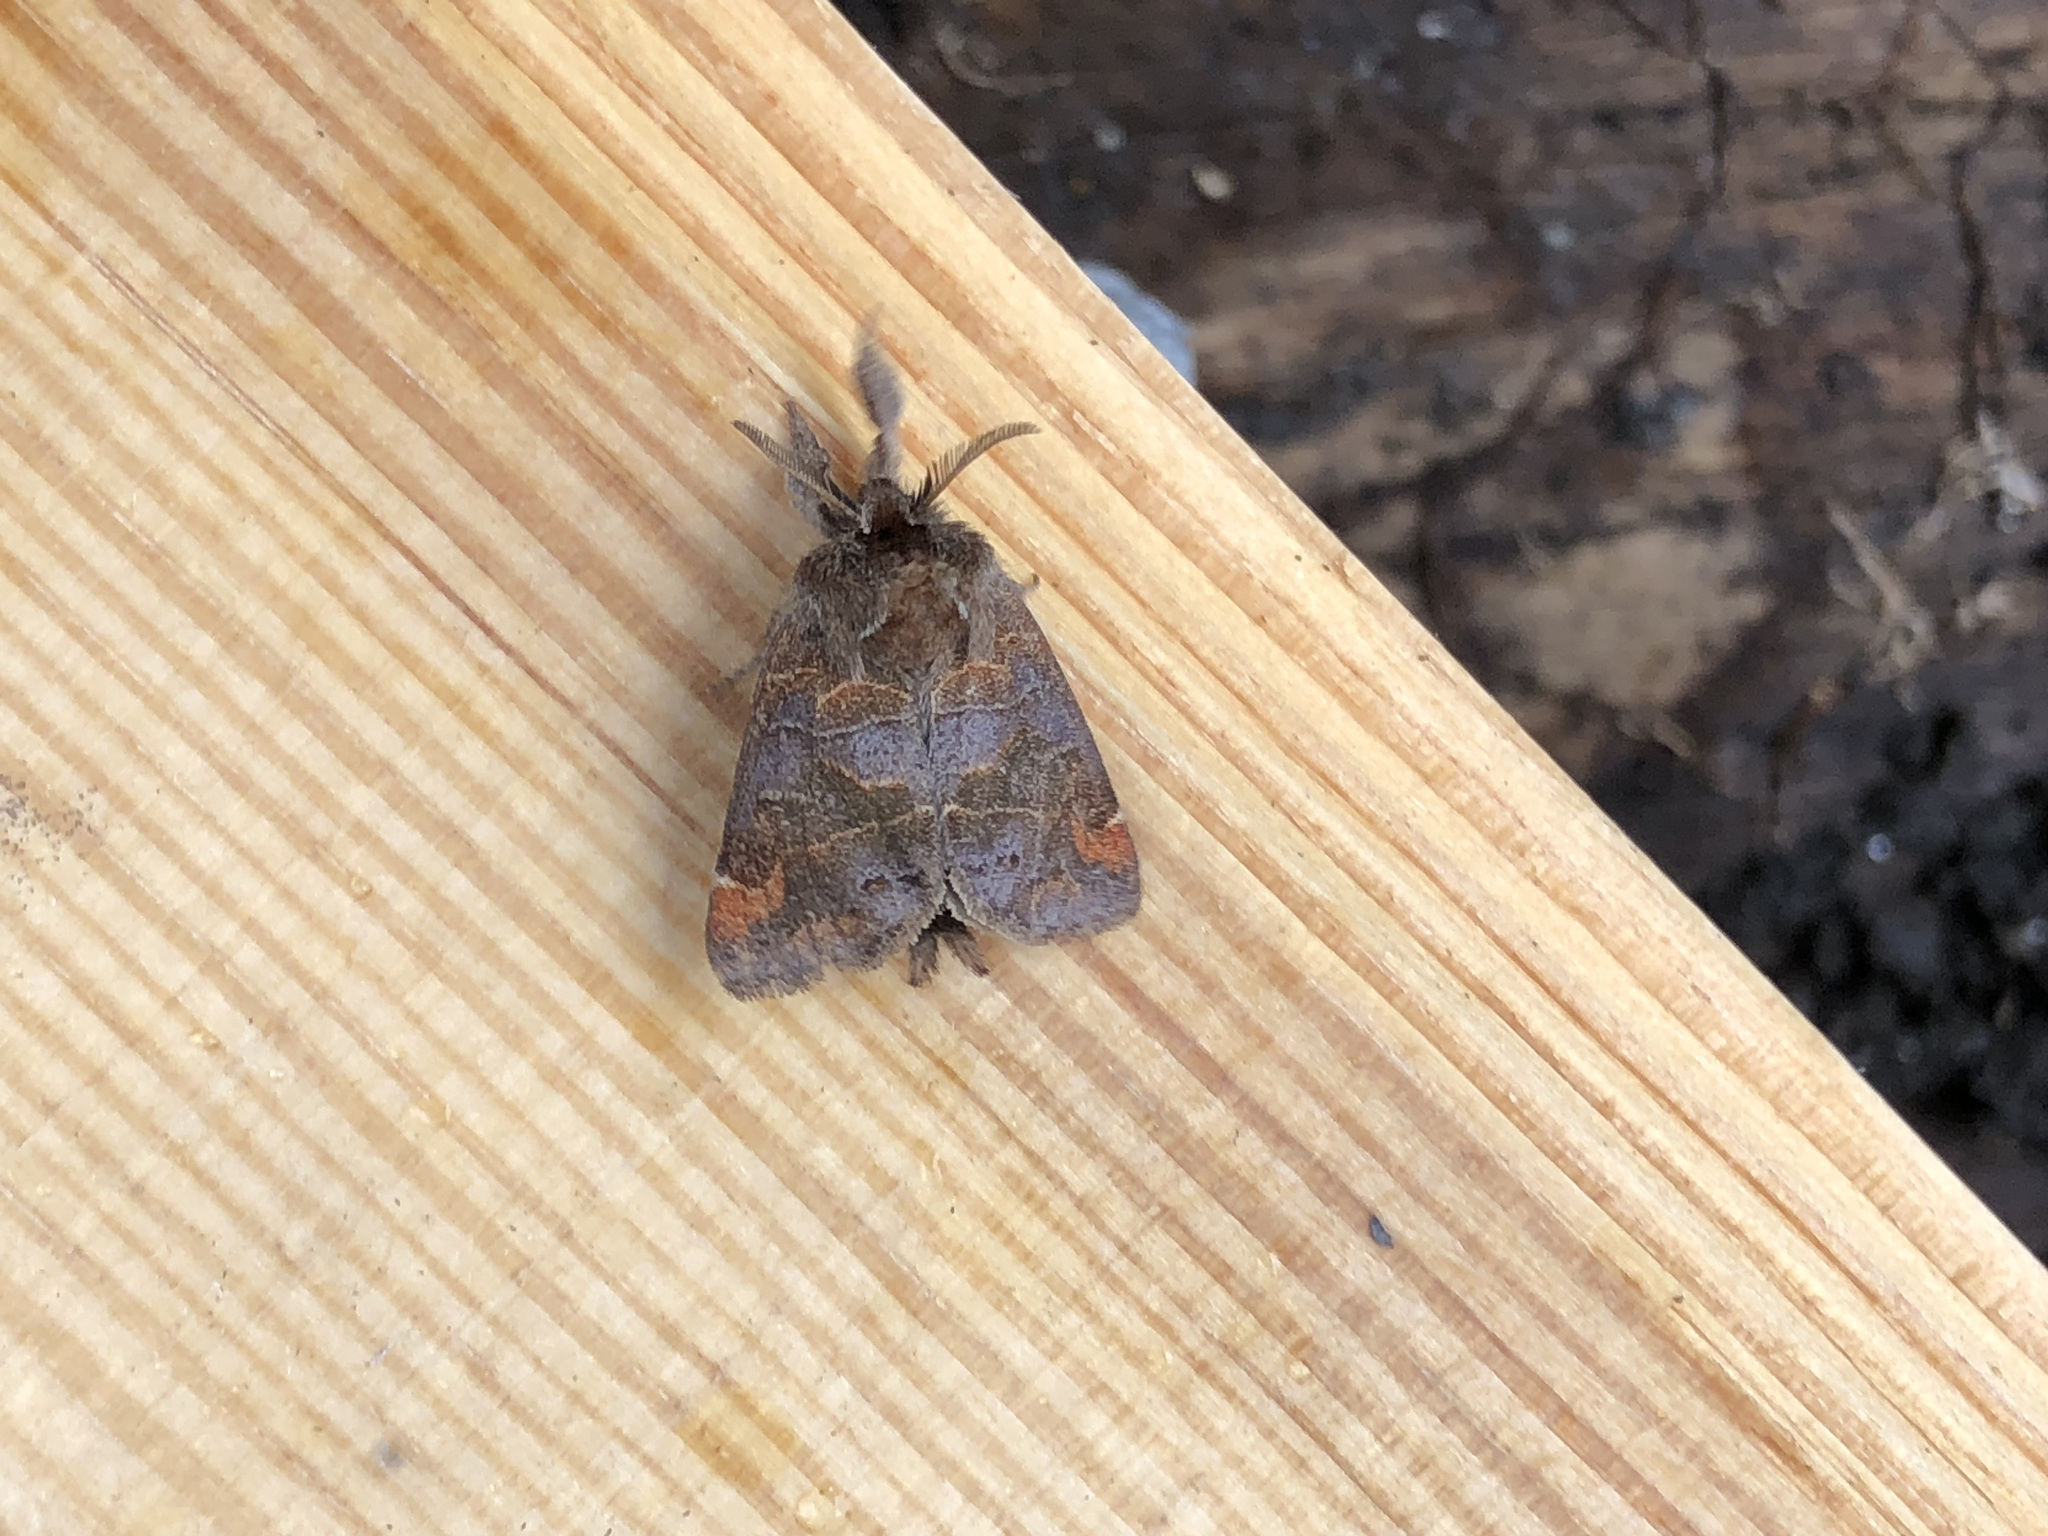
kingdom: Animalia
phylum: Arthropoda
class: Insecta
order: Lepidoptera
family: Notodontidae
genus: Clostera
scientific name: Clostera pigra
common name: Small chocolate-tip
